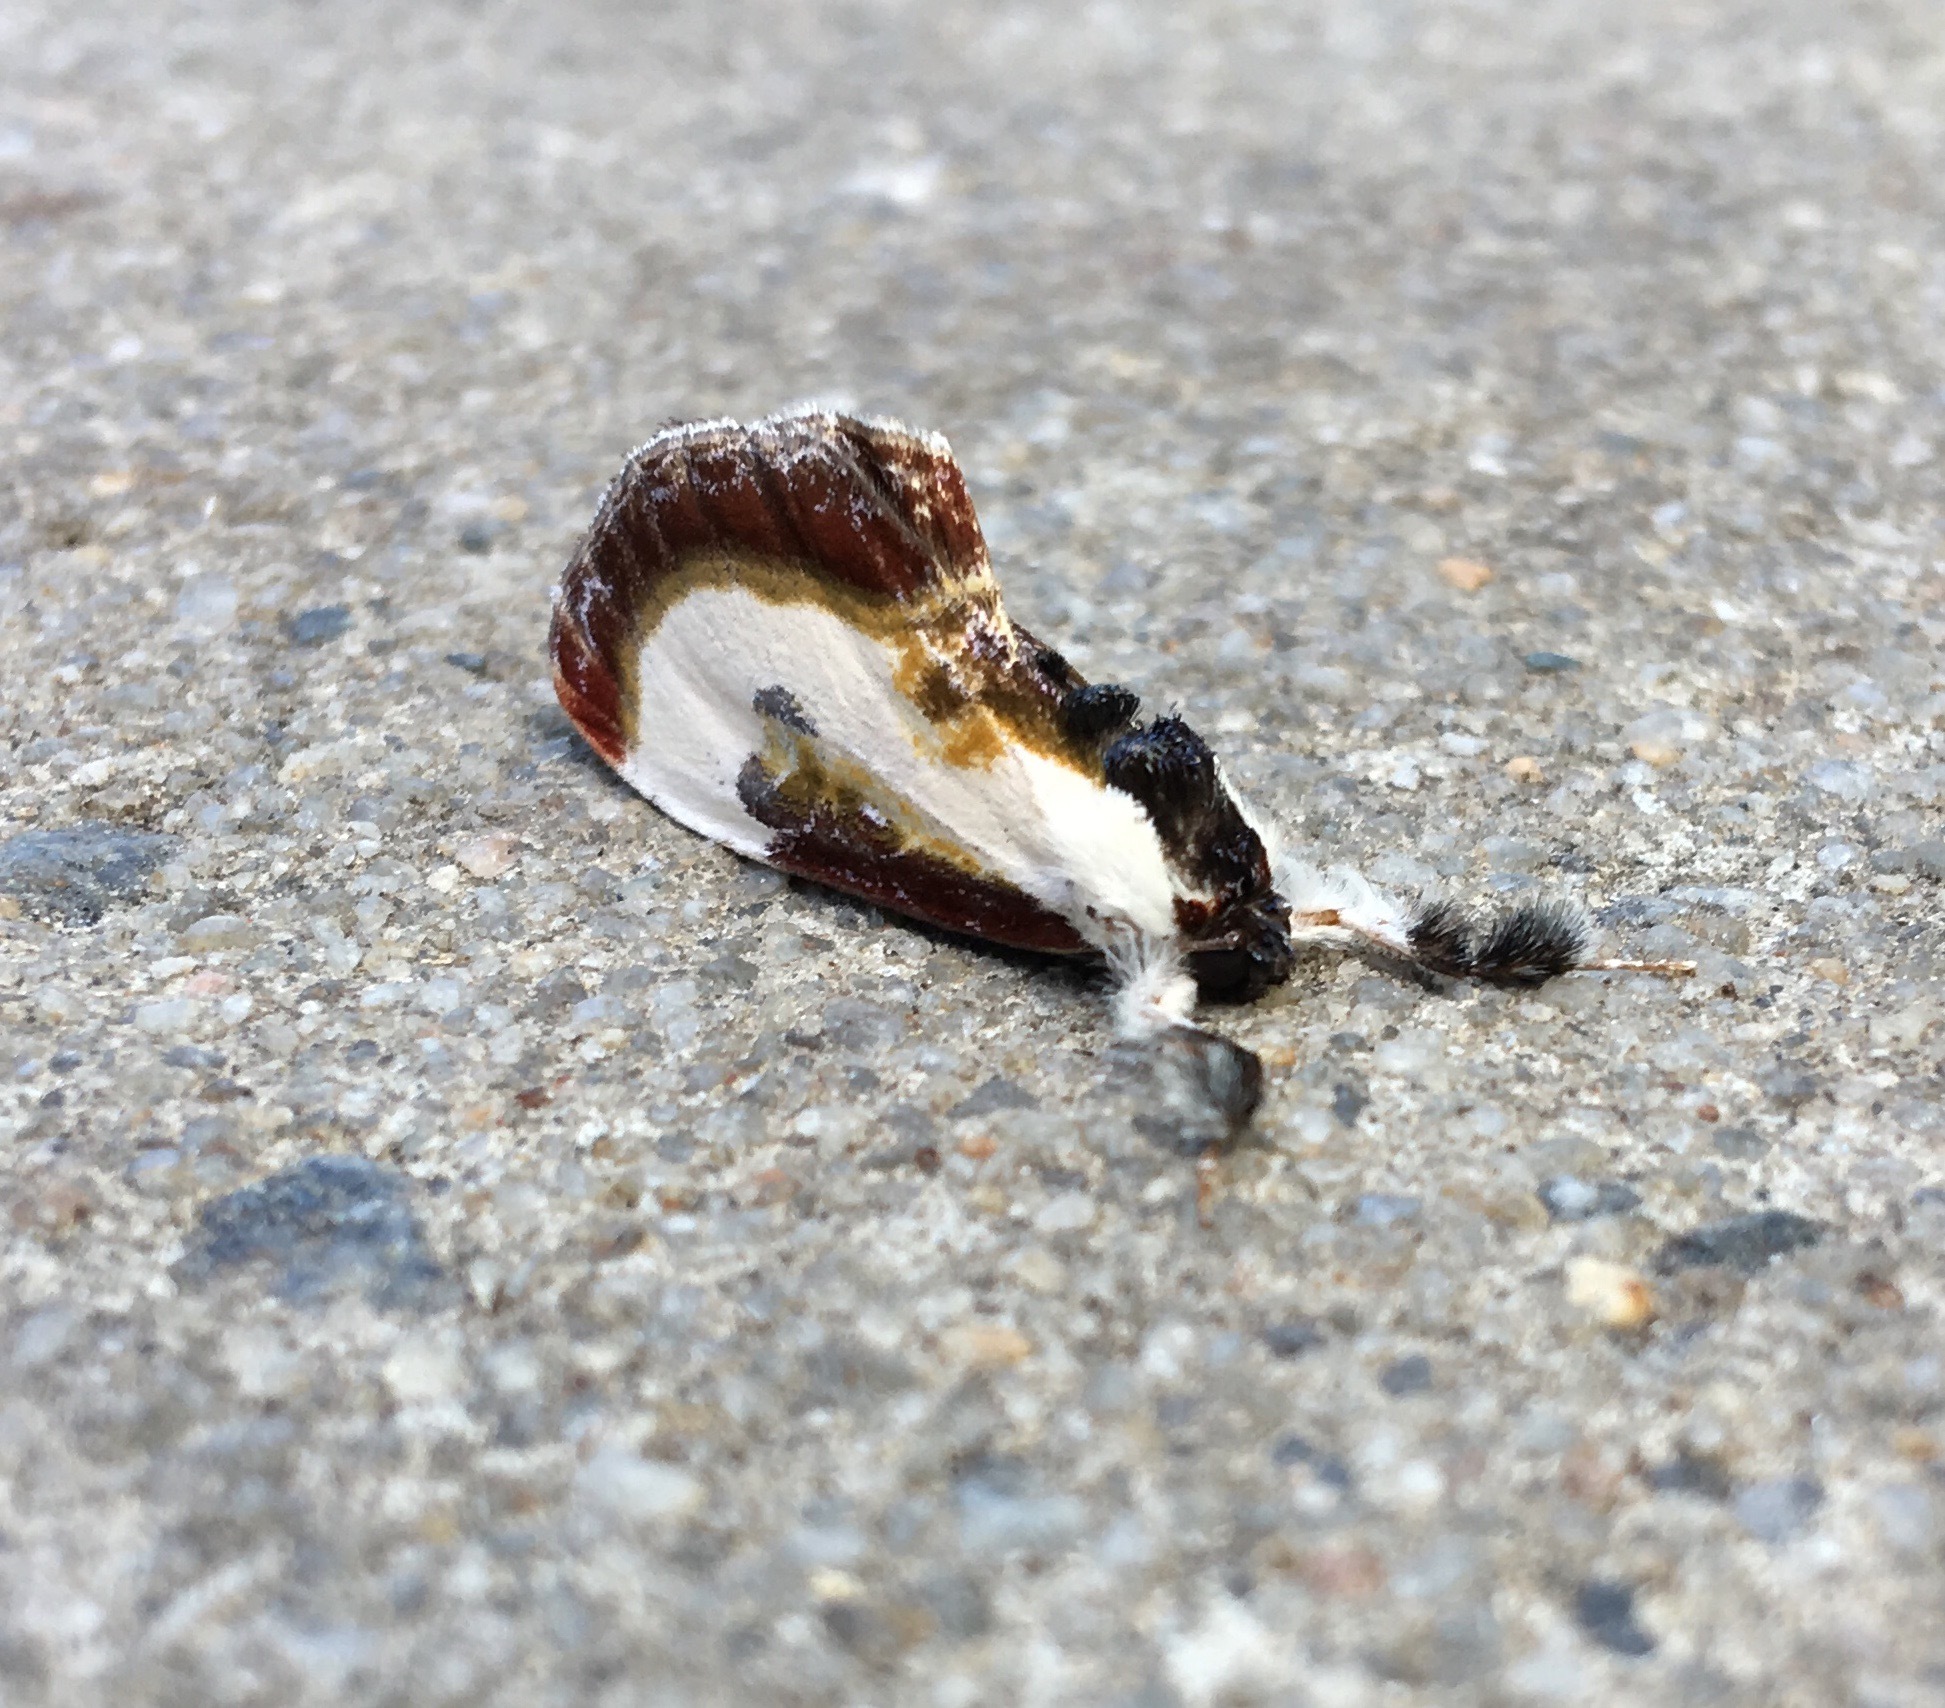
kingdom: Animalia
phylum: Arthropoda
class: Insecta
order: Lepidoptera
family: Noctuidae
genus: Eudryas
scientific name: Eudryas grata
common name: Beautiful wood-nymph
